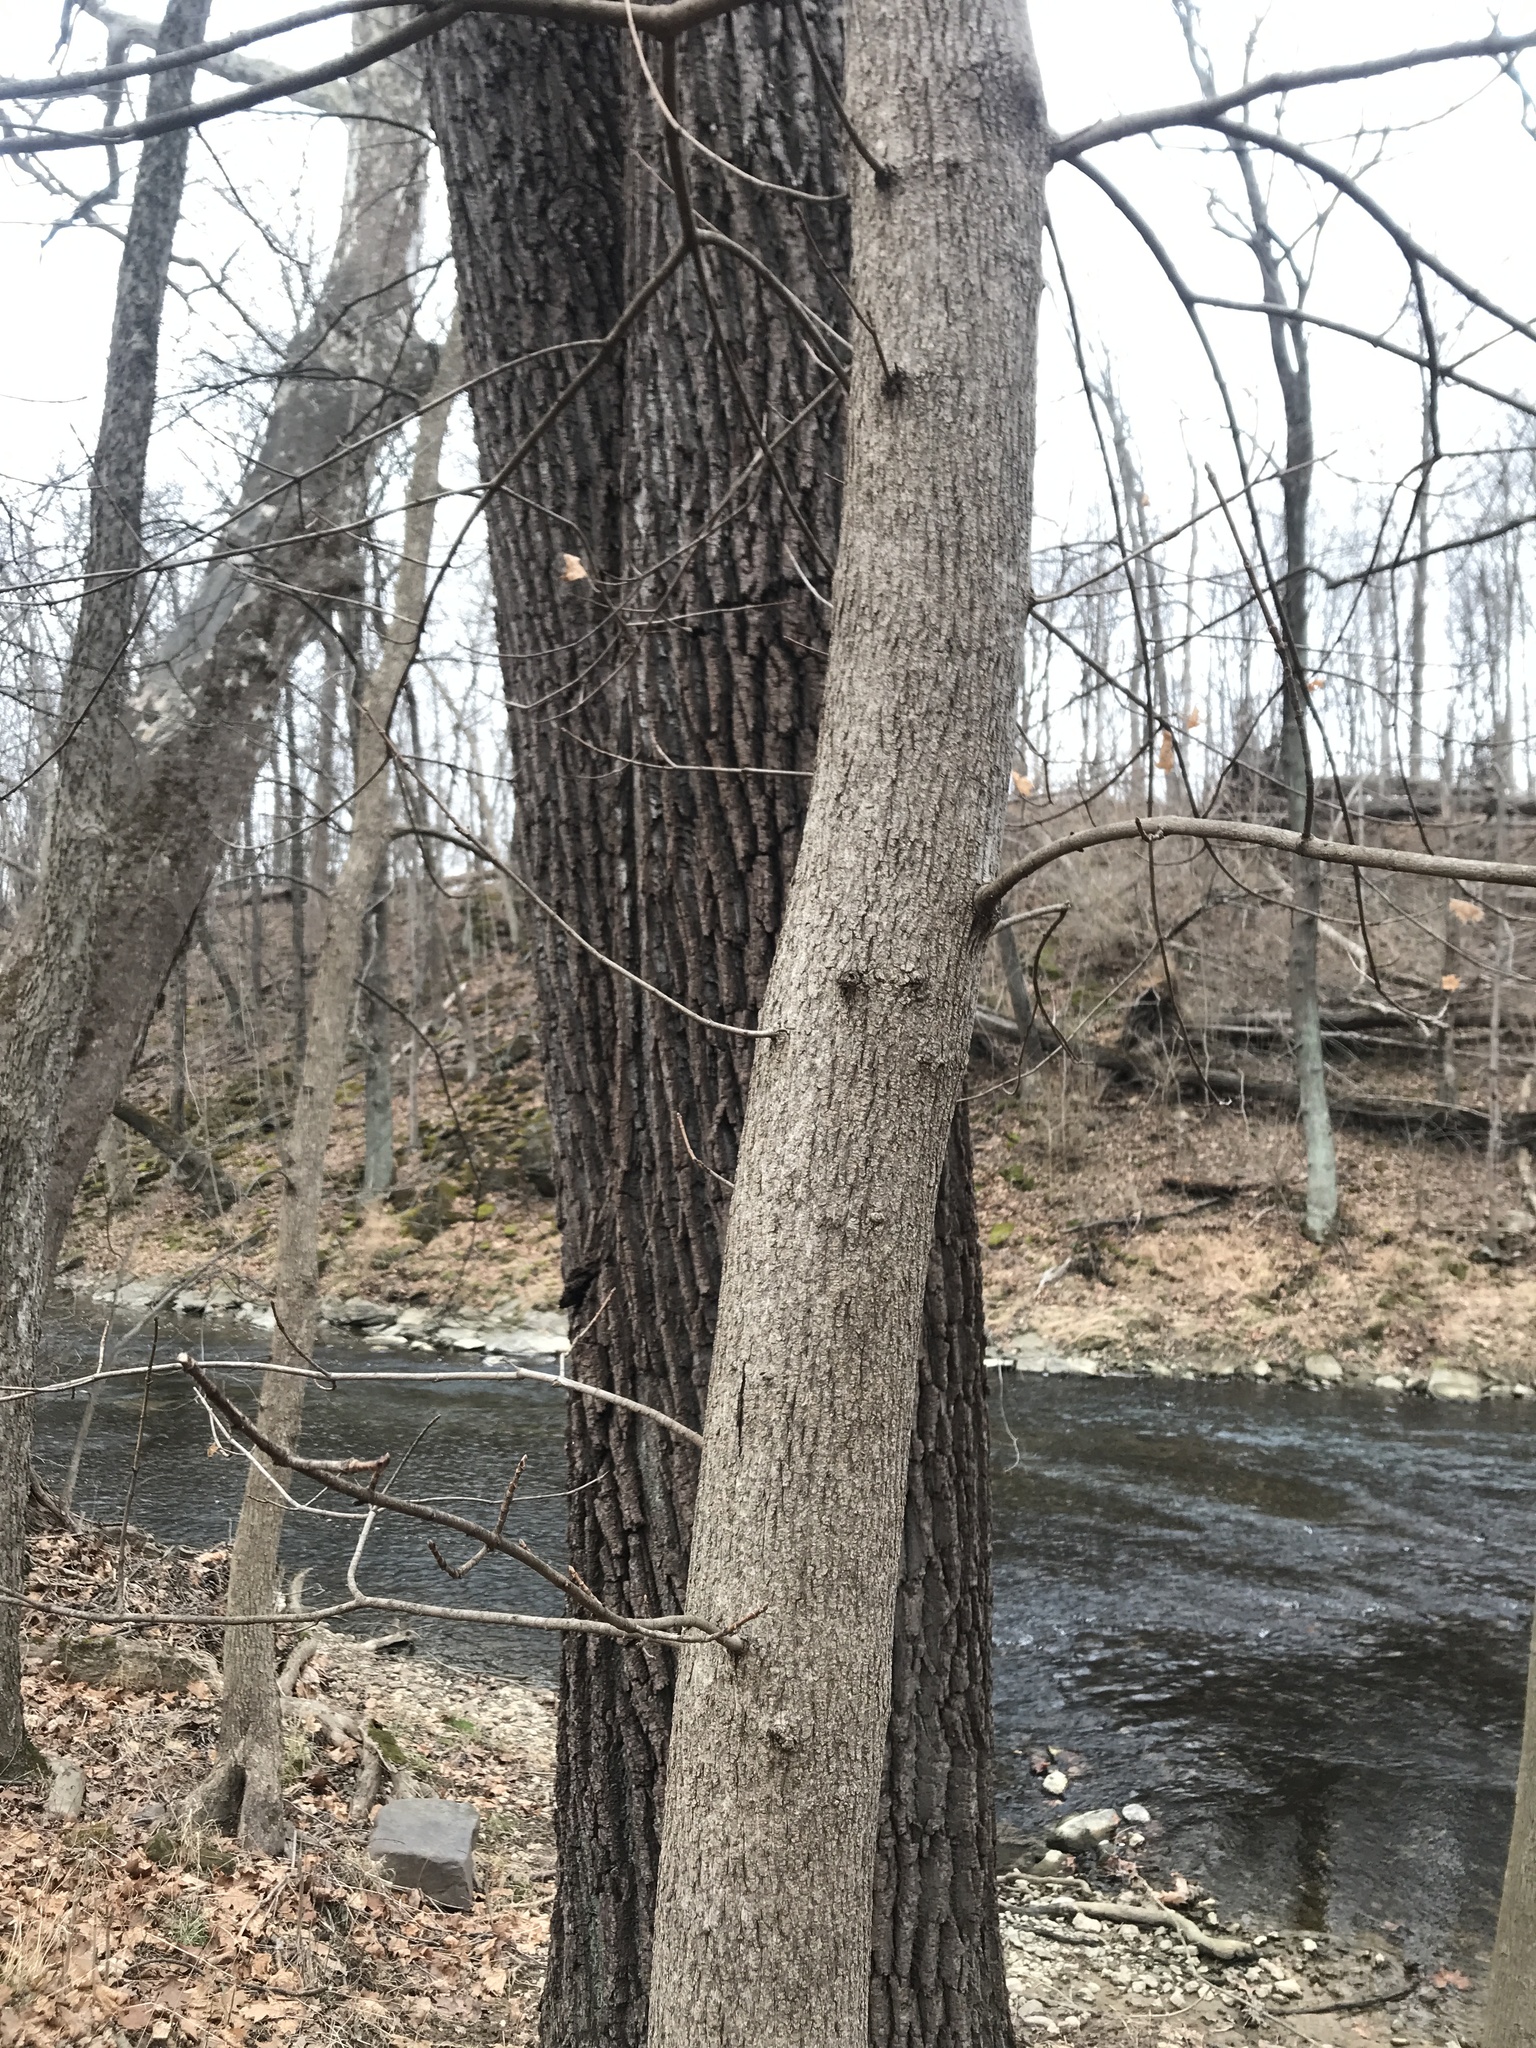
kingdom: Plantae
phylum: Tracheophyta
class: Magnoliopsida
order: Sapindales
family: Sapindaceae
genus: Acer
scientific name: Acer platanoides
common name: Norway maple
